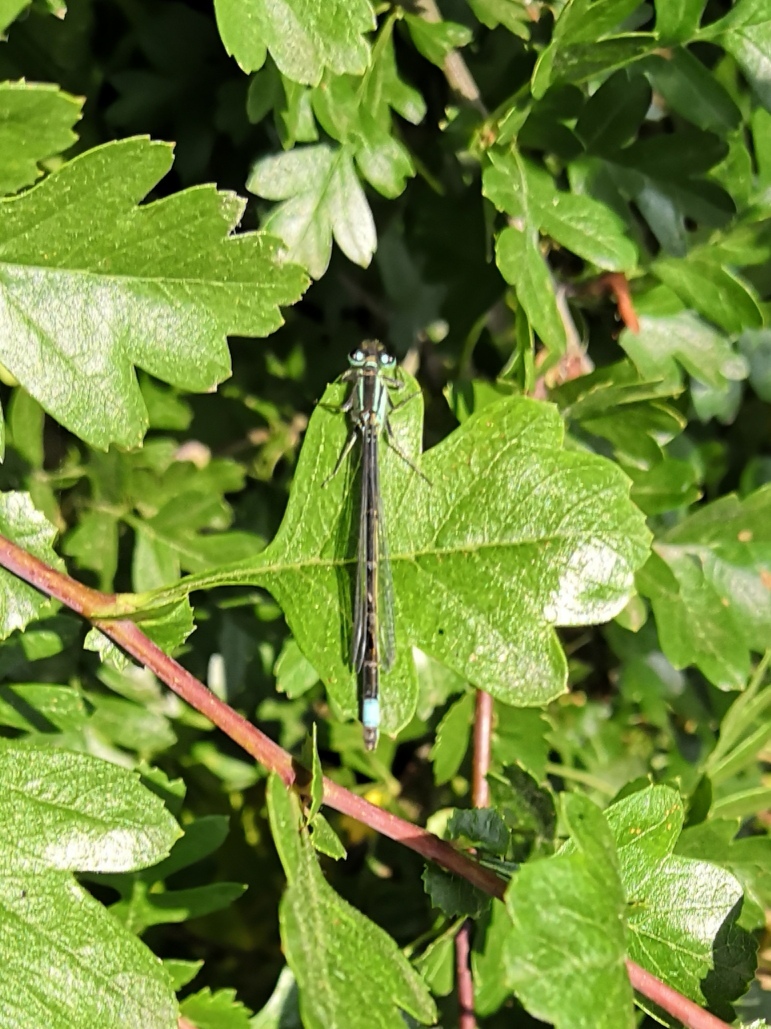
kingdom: Animalia
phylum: Arthropoda
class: Insecta
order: Odonata
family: Coenagrionidae
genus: Ischnura
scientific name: Ischnura elegans
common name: Blue-tailed damselfly
